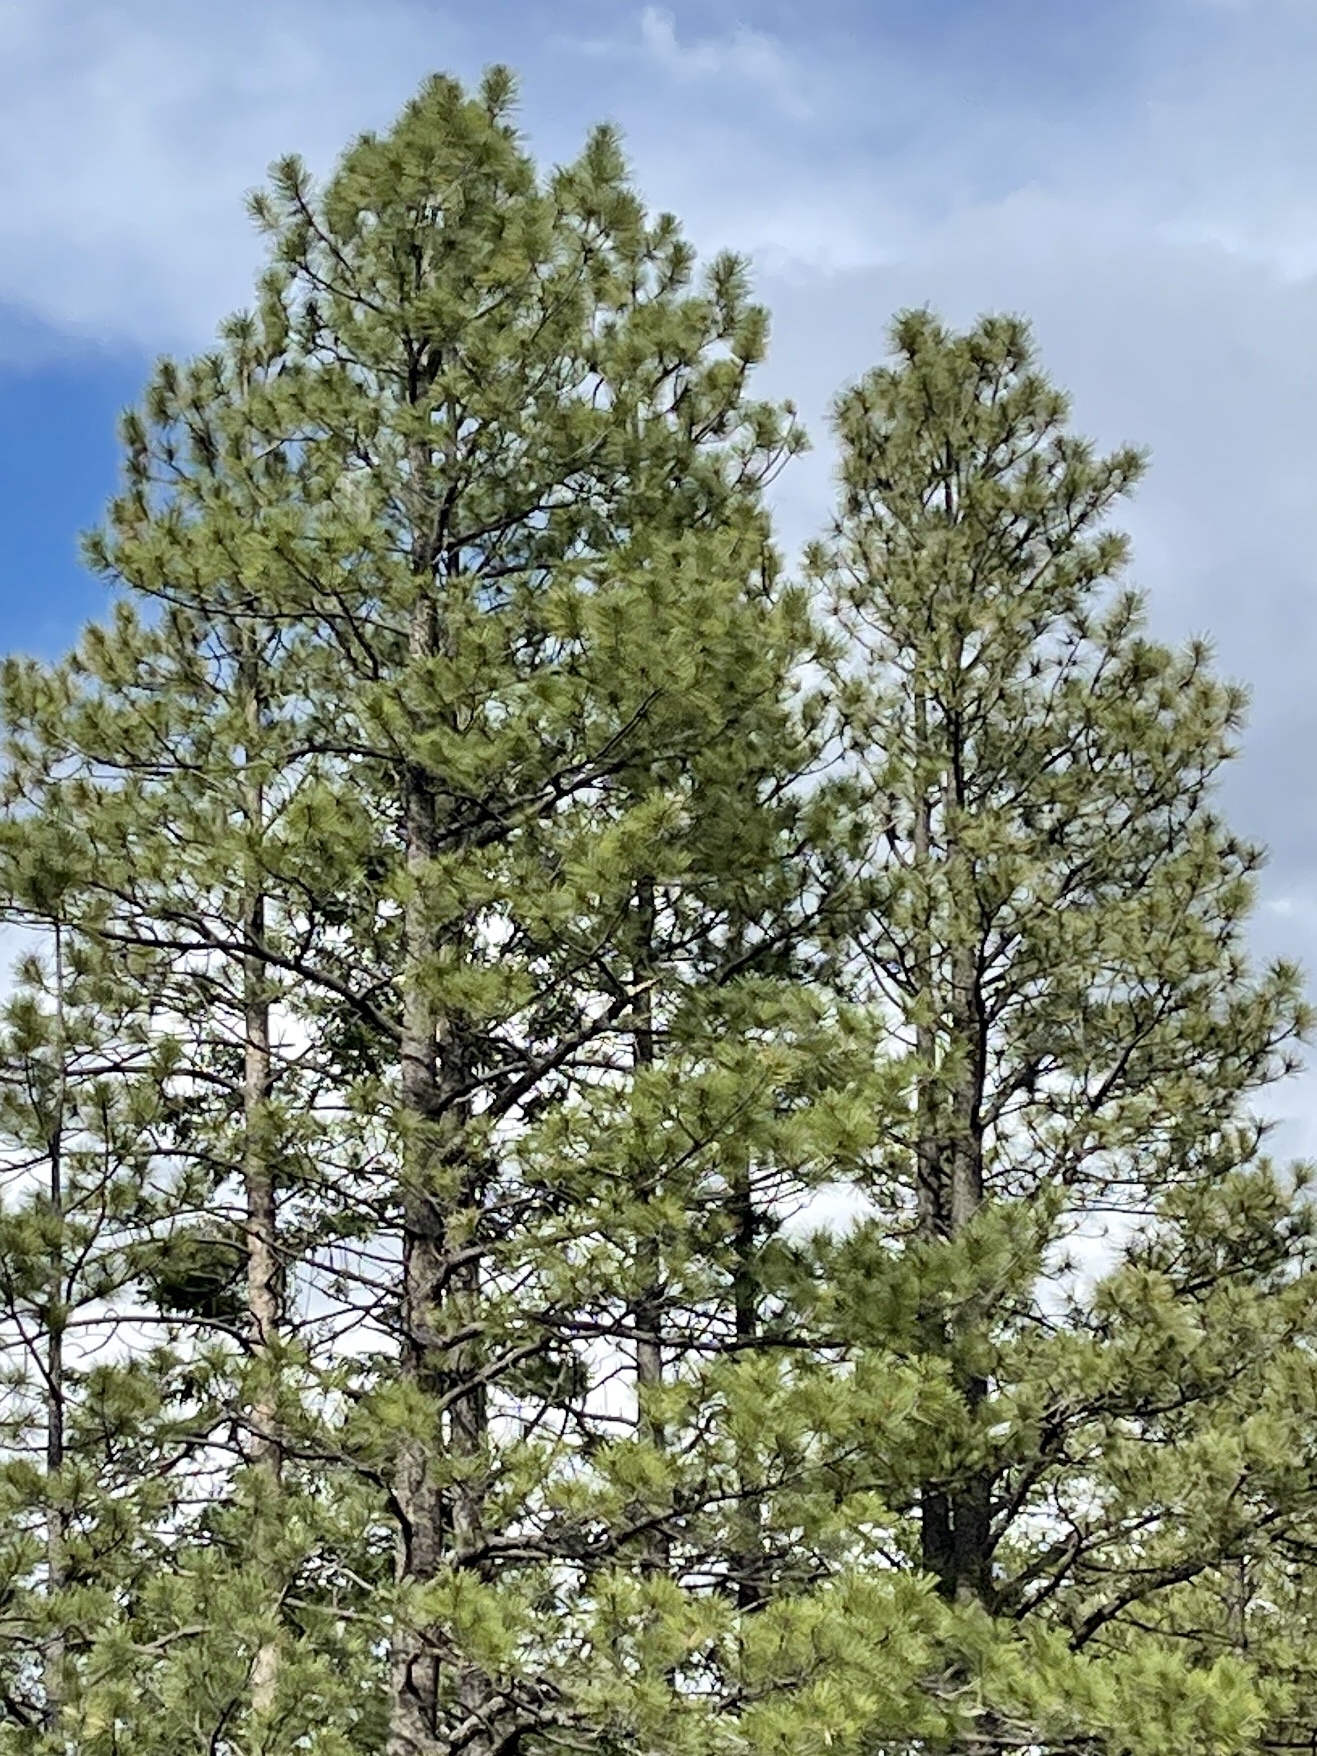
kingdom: Plantae
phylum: Tracheophyta
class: Pinopsida
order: Pinales
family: Pinaceae
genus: Pinus
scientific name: Pinus ponderosa
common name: Western yellow-pine
